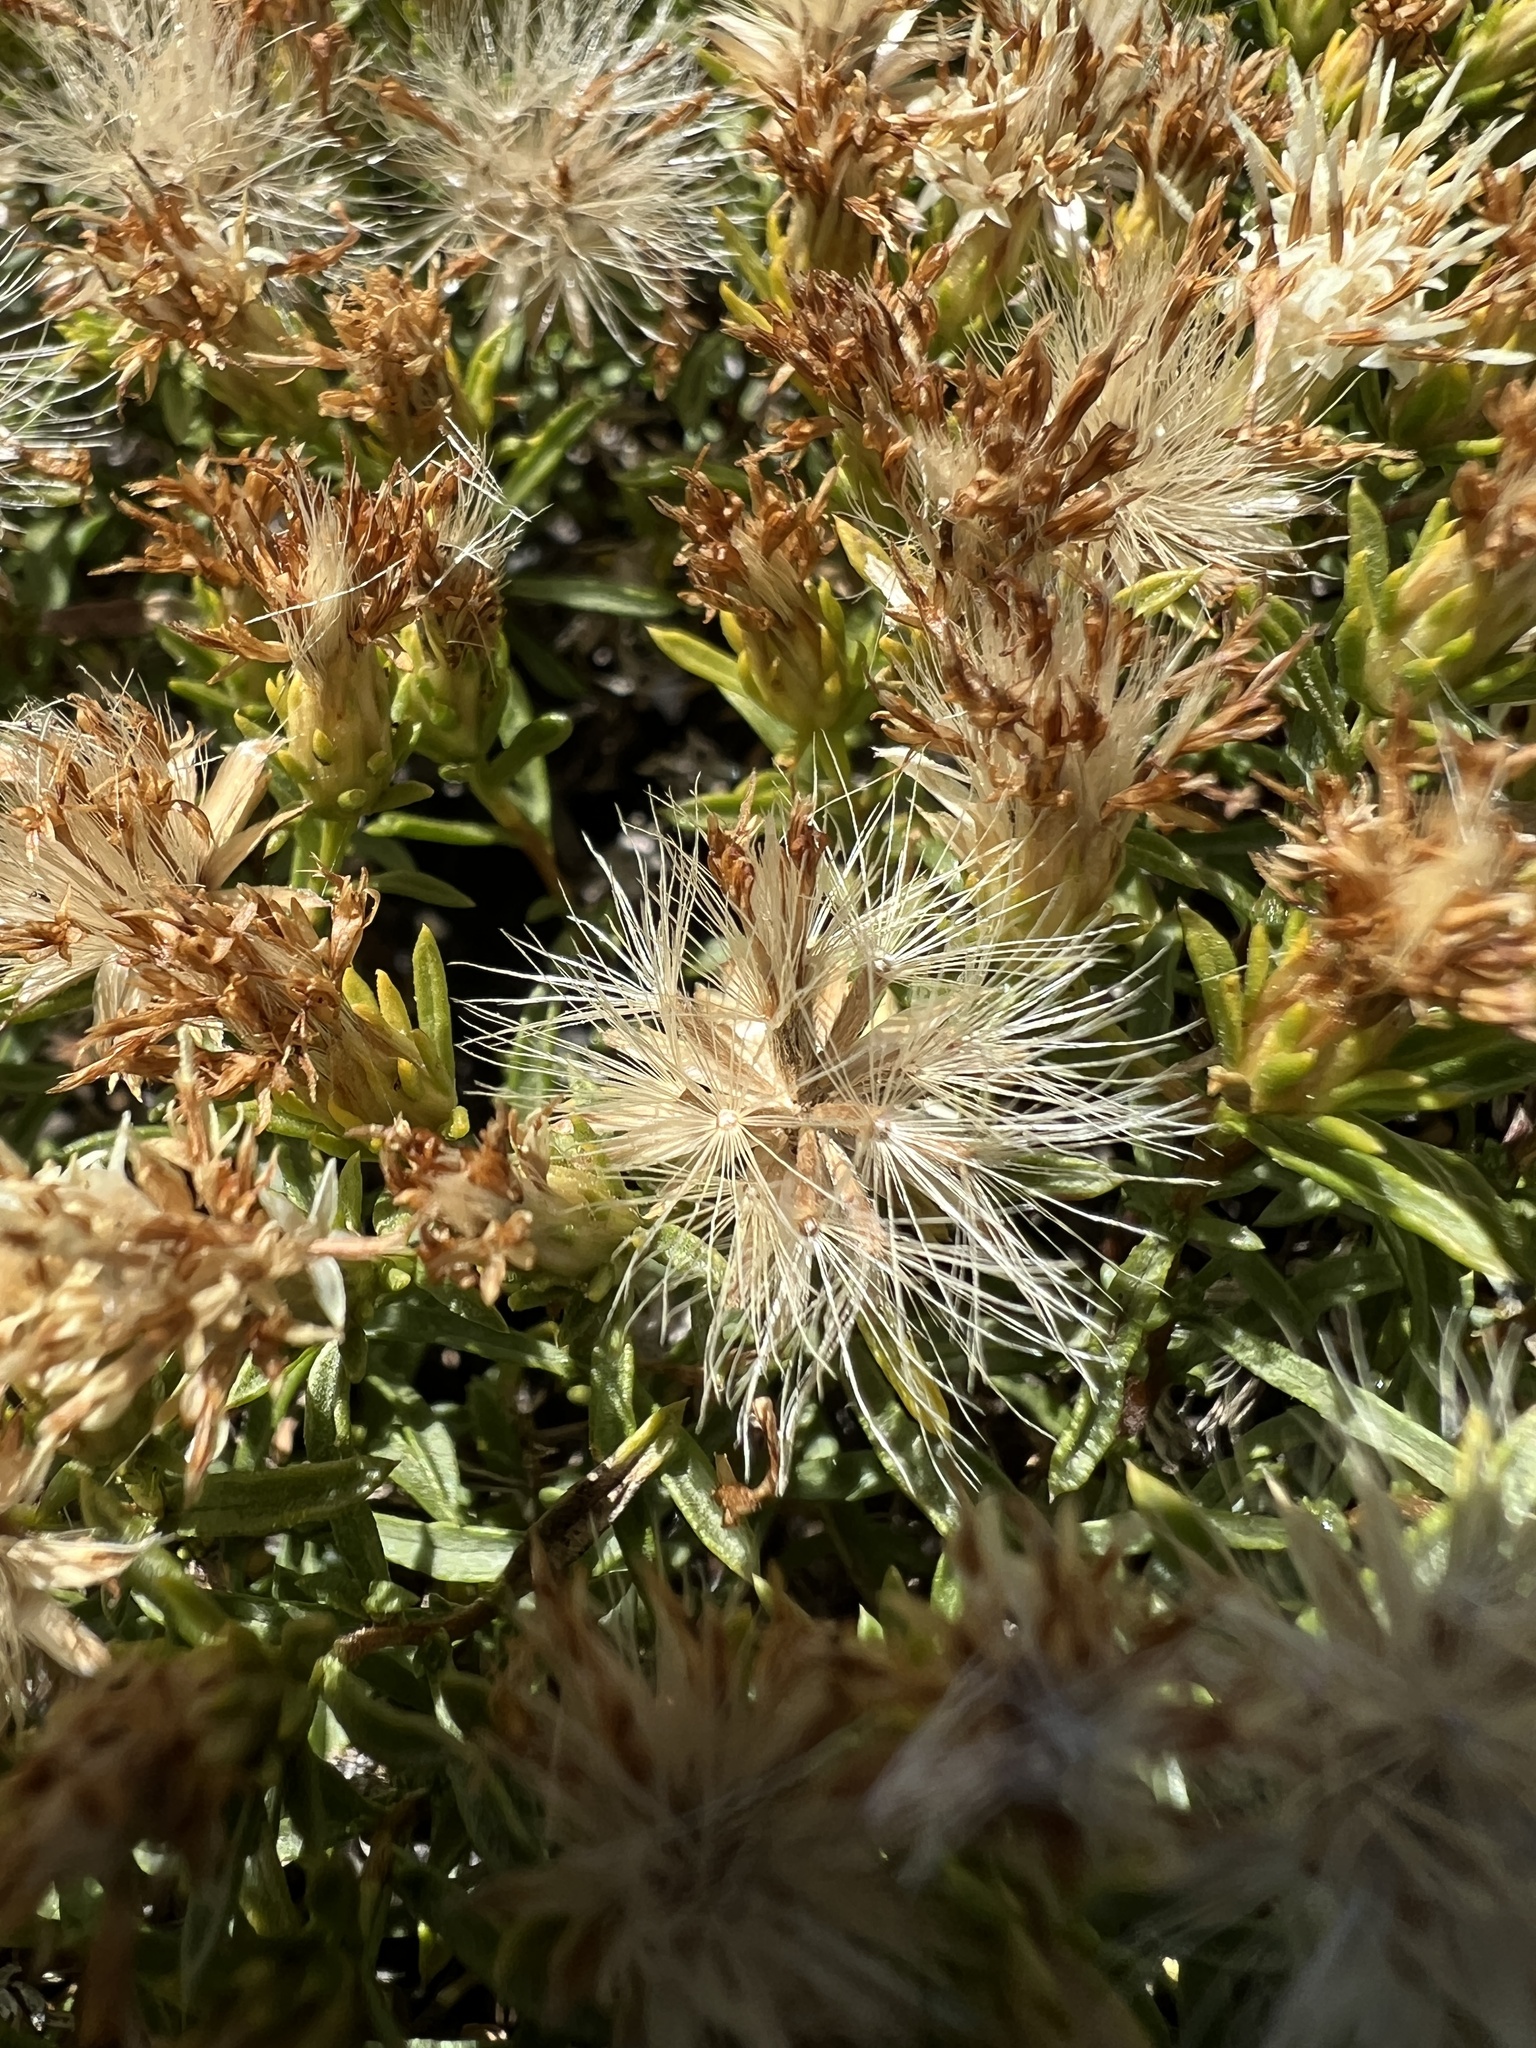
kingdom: Plantae
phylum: Tracheophyta
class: Magnoliopsida
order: Asterales
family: Asteraceae
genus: Ericameria
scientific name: Ericameria resinosa
